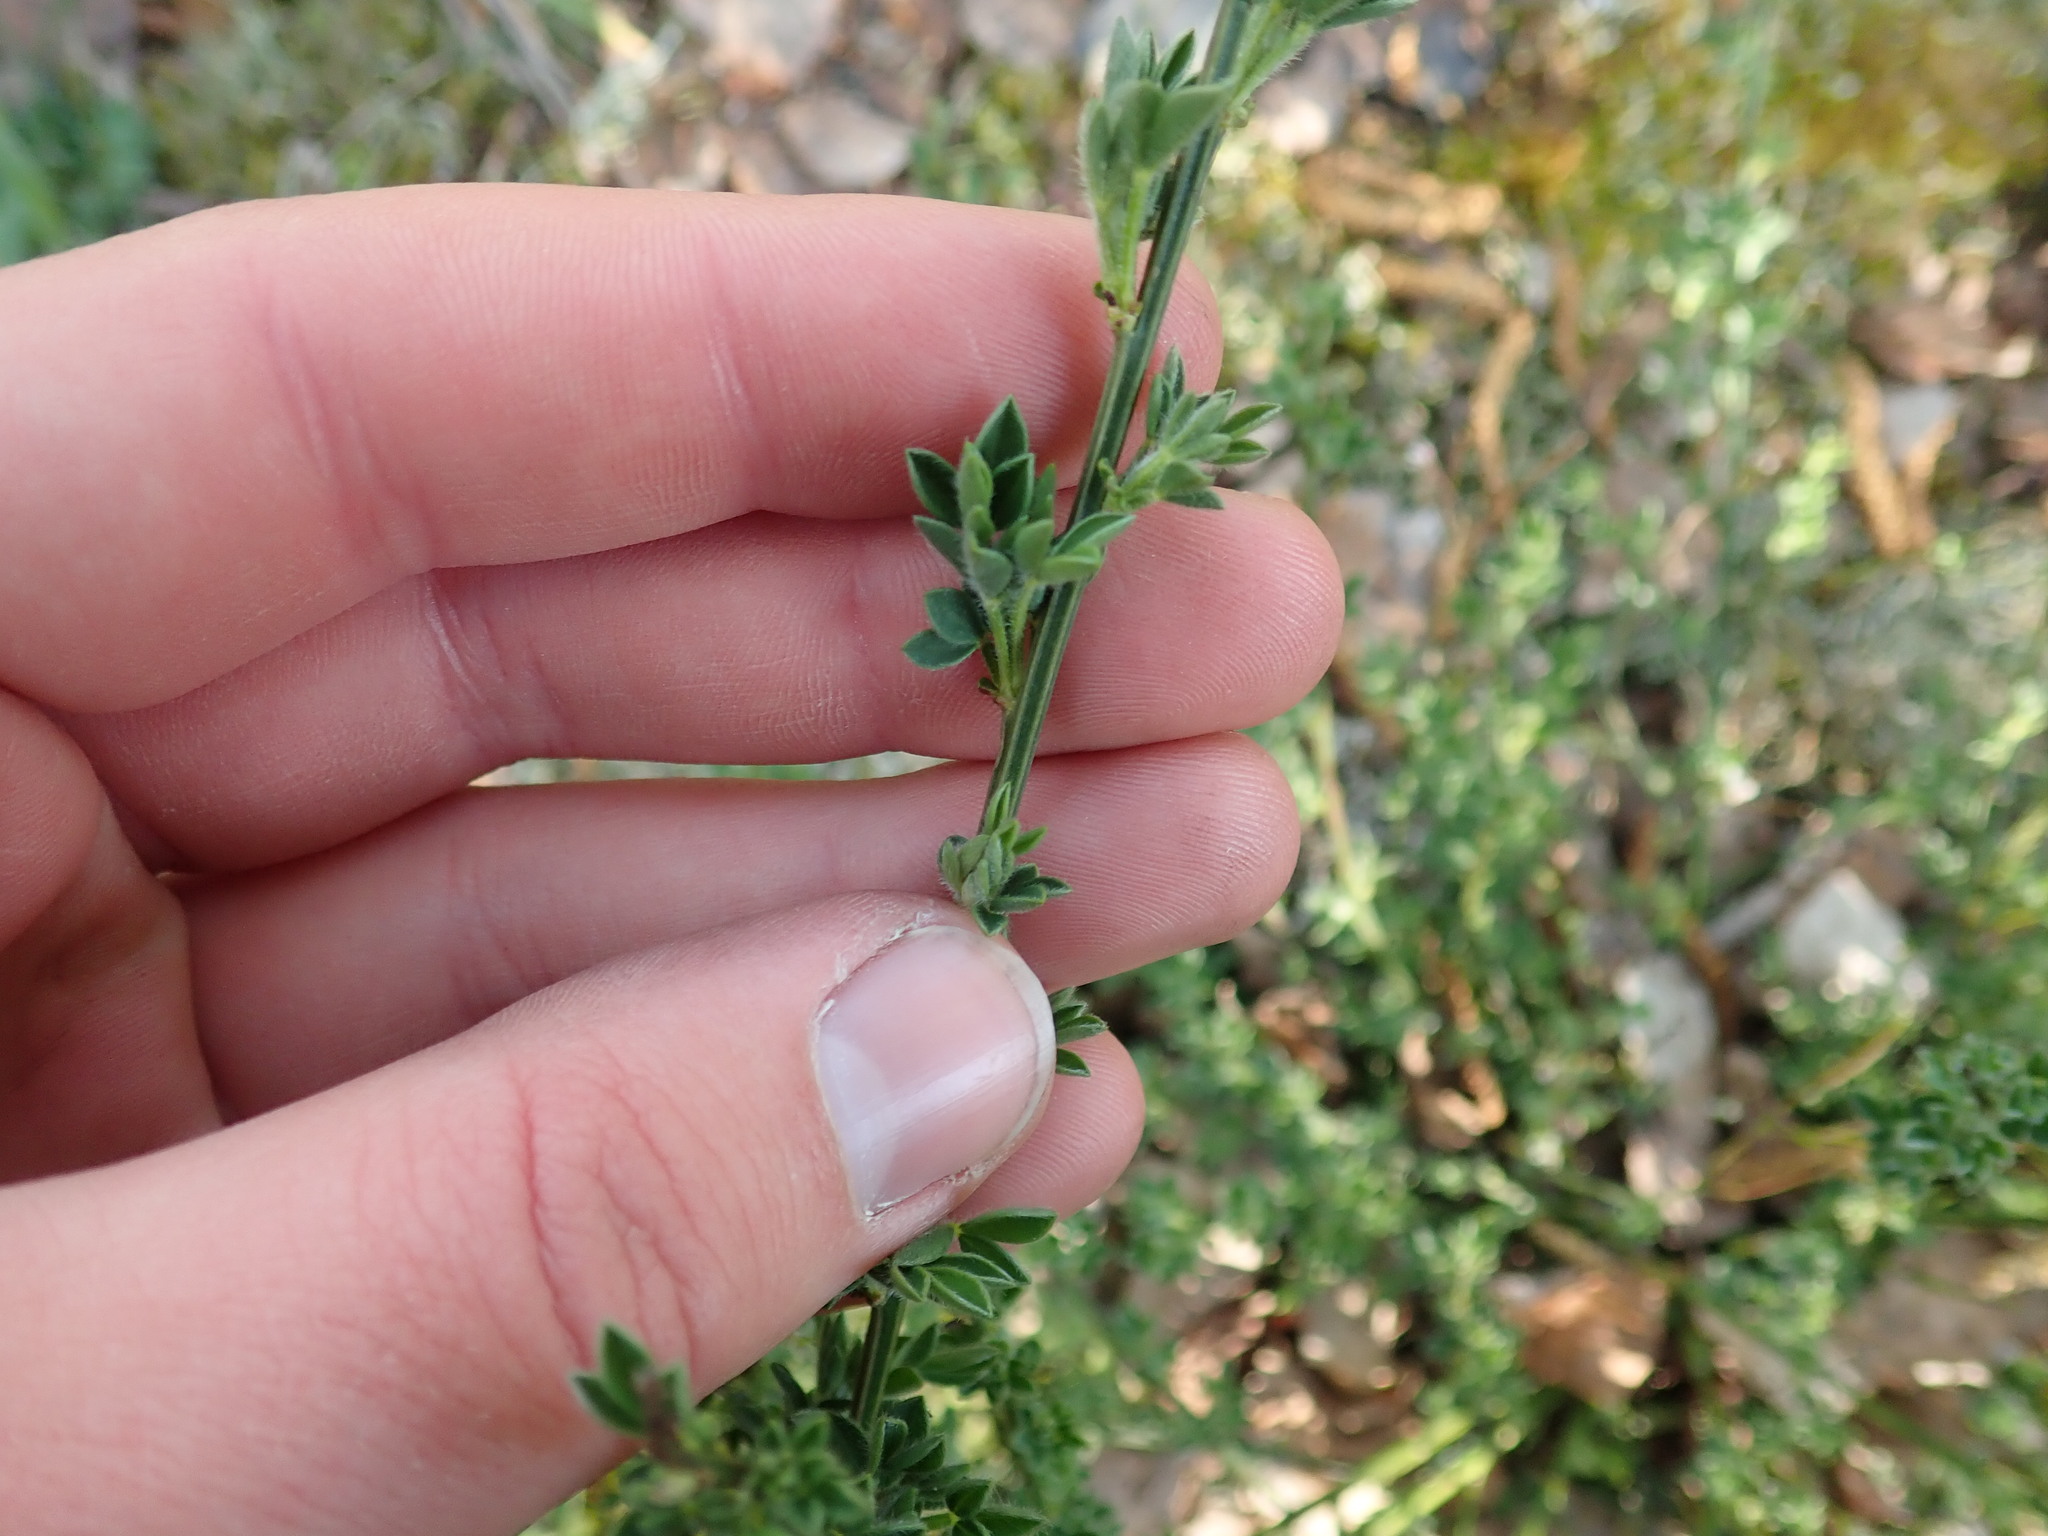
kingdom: Plantae
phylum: Tracheophyta
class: Magnoliopsida
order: Fabales
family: Fabaceae
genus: Cytisus
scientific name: Cytisus scoparius
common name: Scotch broom
